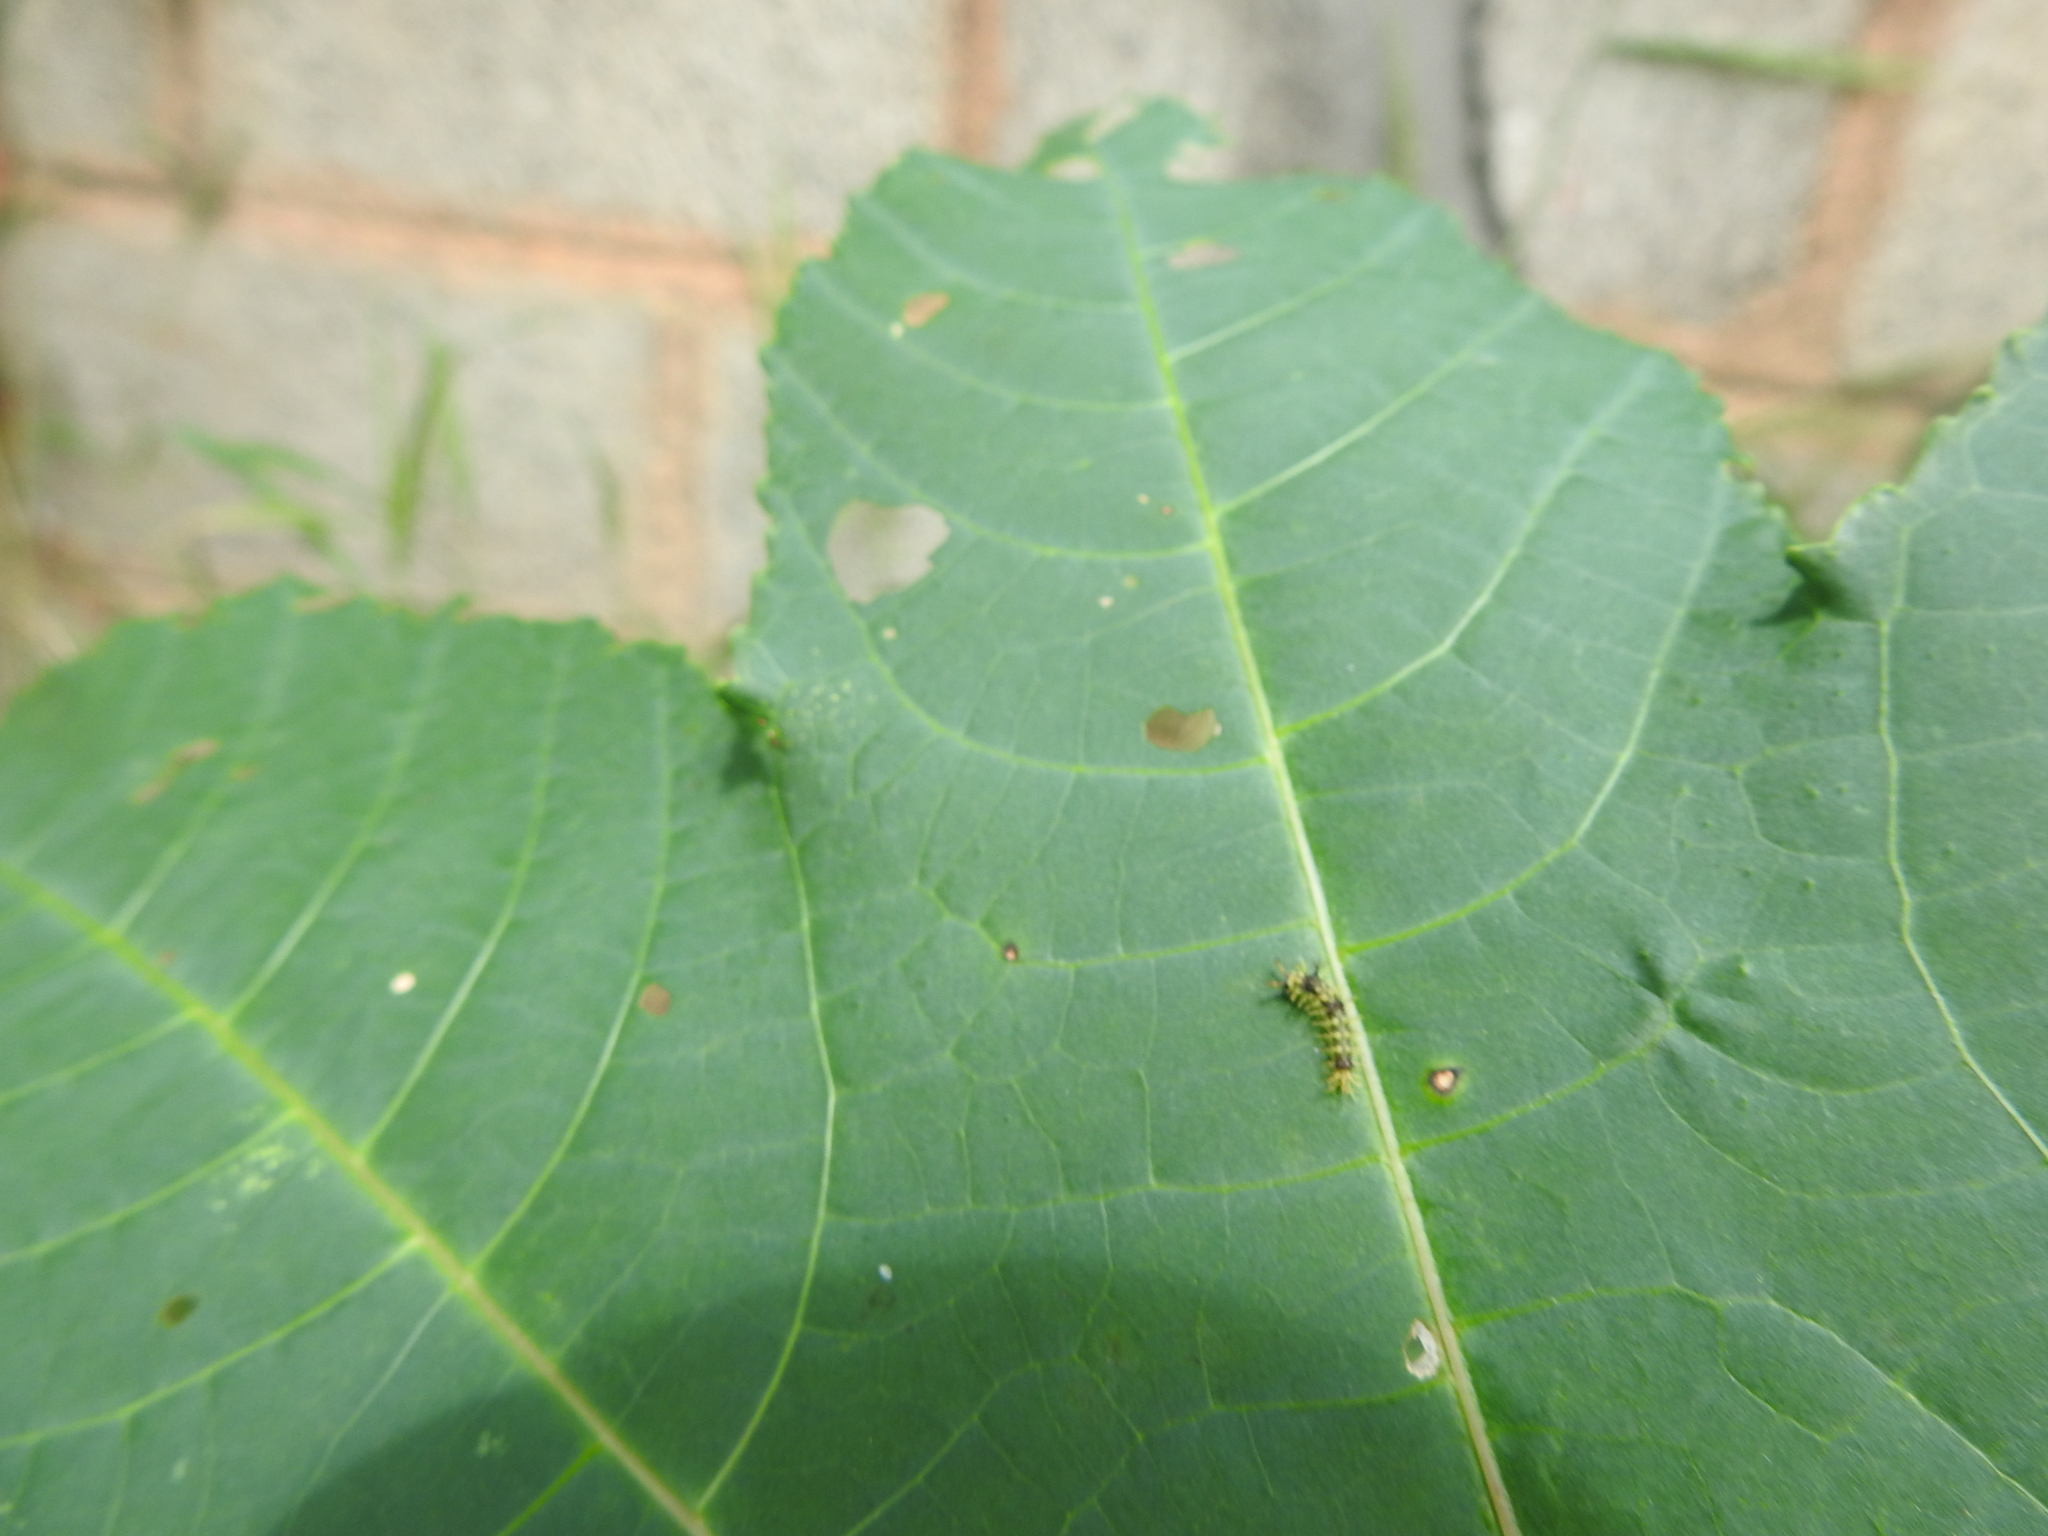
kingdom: Animalia
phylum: Arthropoda
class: Insecta
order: Lepidoptera
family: Nymphalidae
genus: Ariadne
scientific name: Ariadne merione
